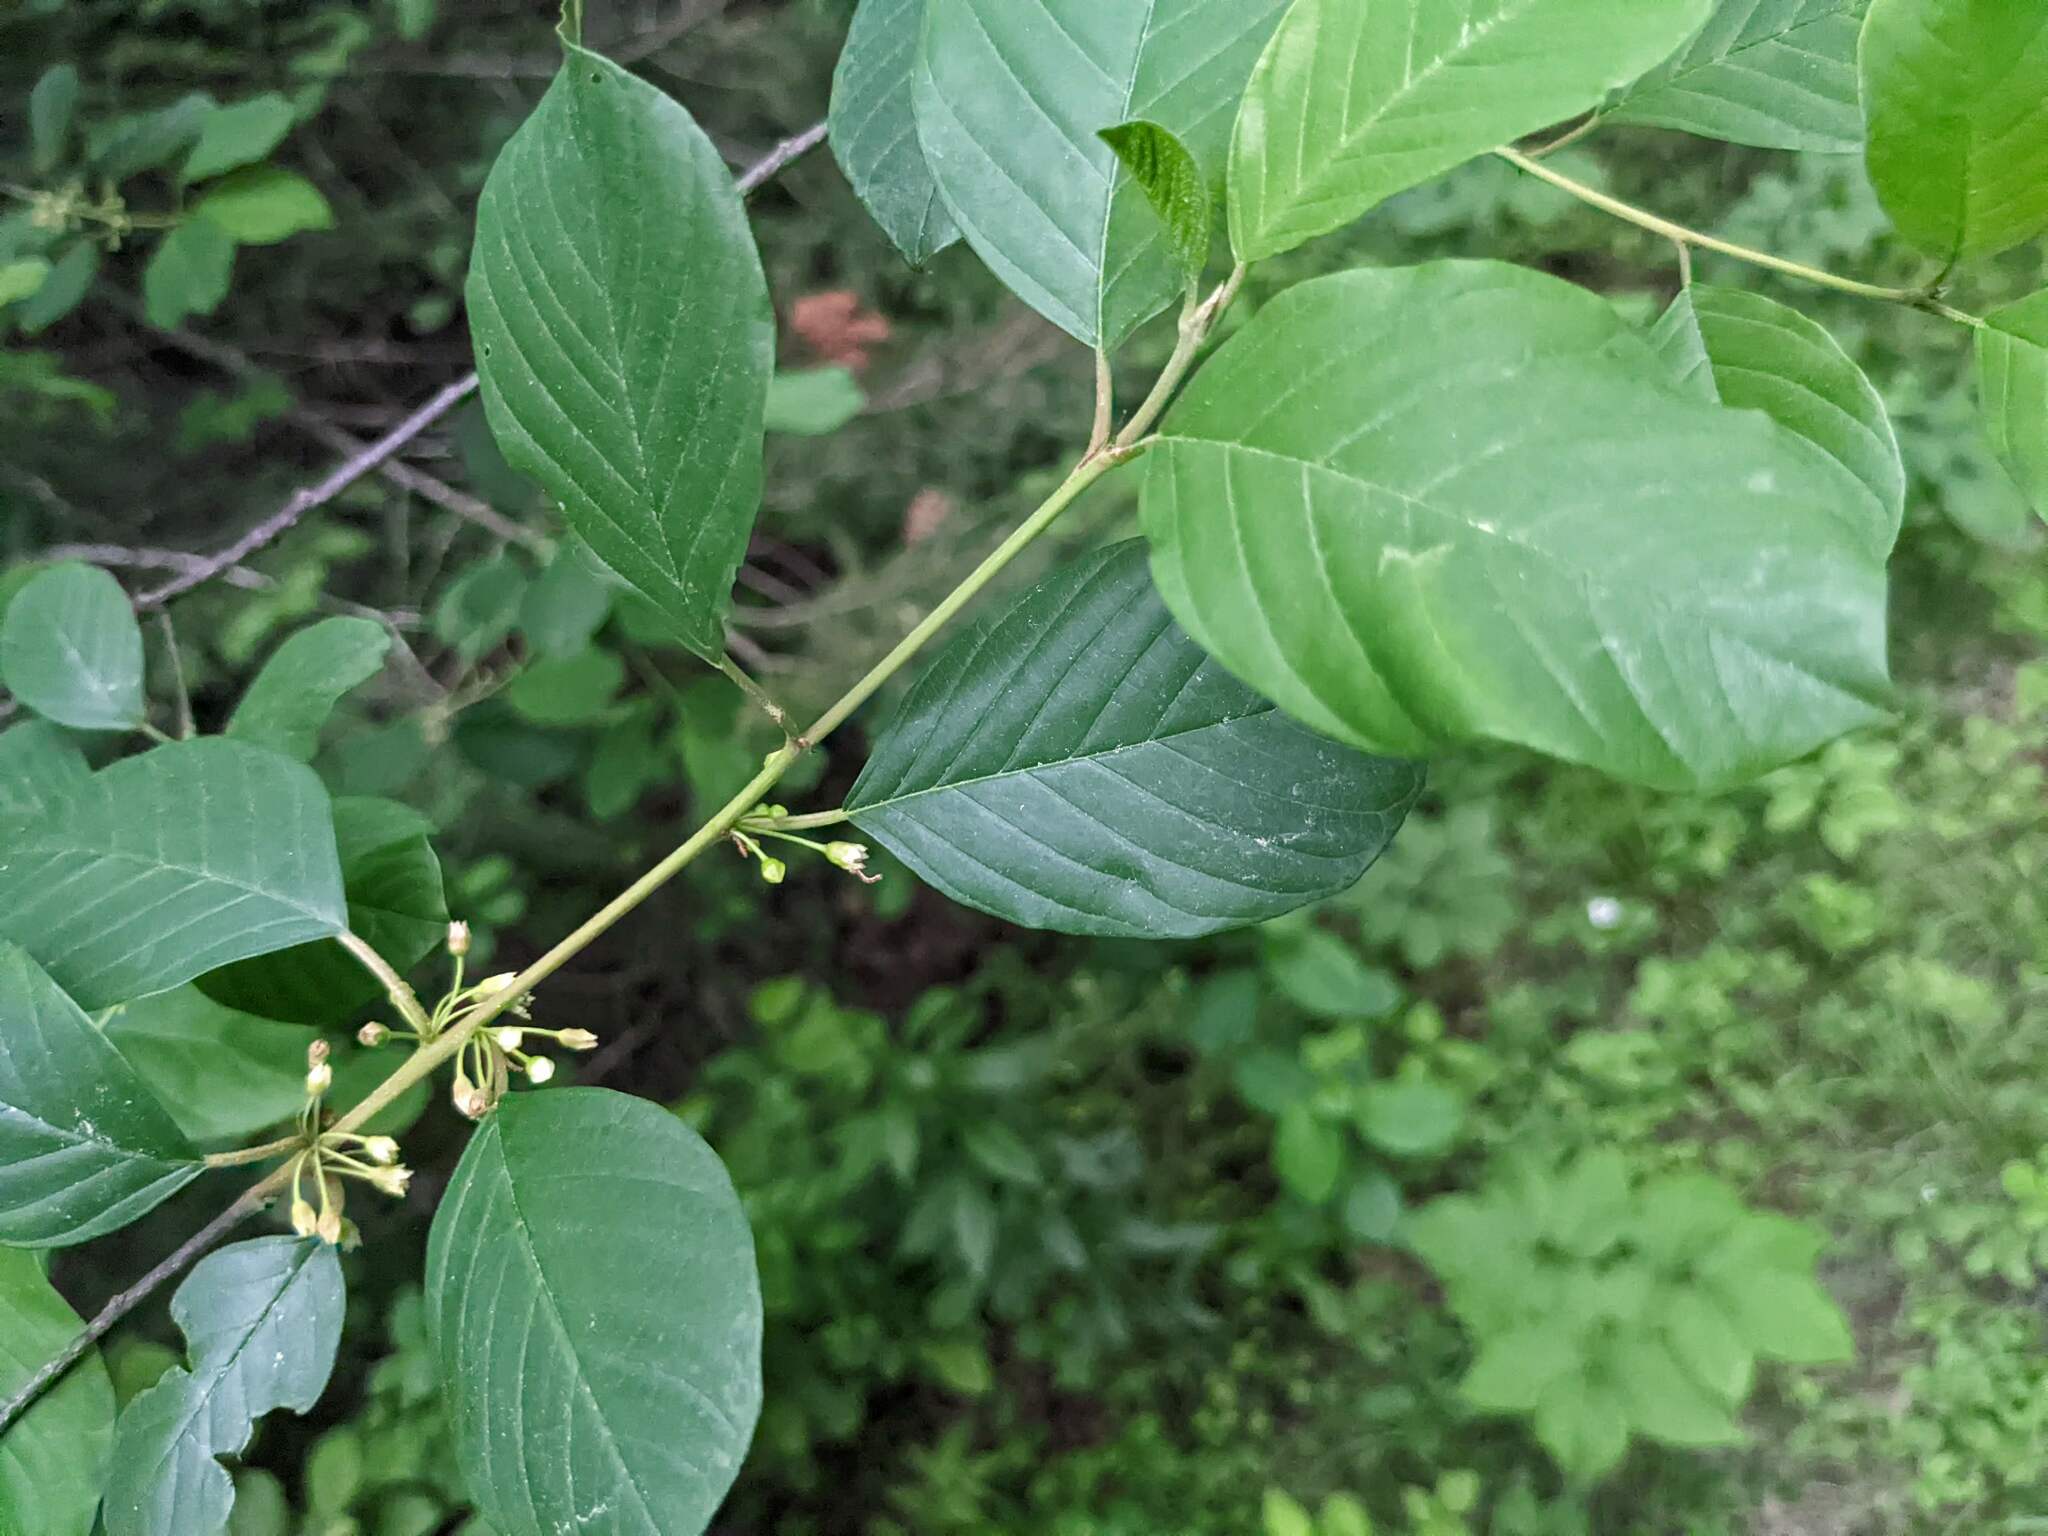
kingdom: Plantae
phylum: Tracheophyta
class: Magnoliopsida
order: Rosales
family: Rhamnaceae
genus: Frangula
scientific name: Frangula alnus
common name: Alder buckthorn
